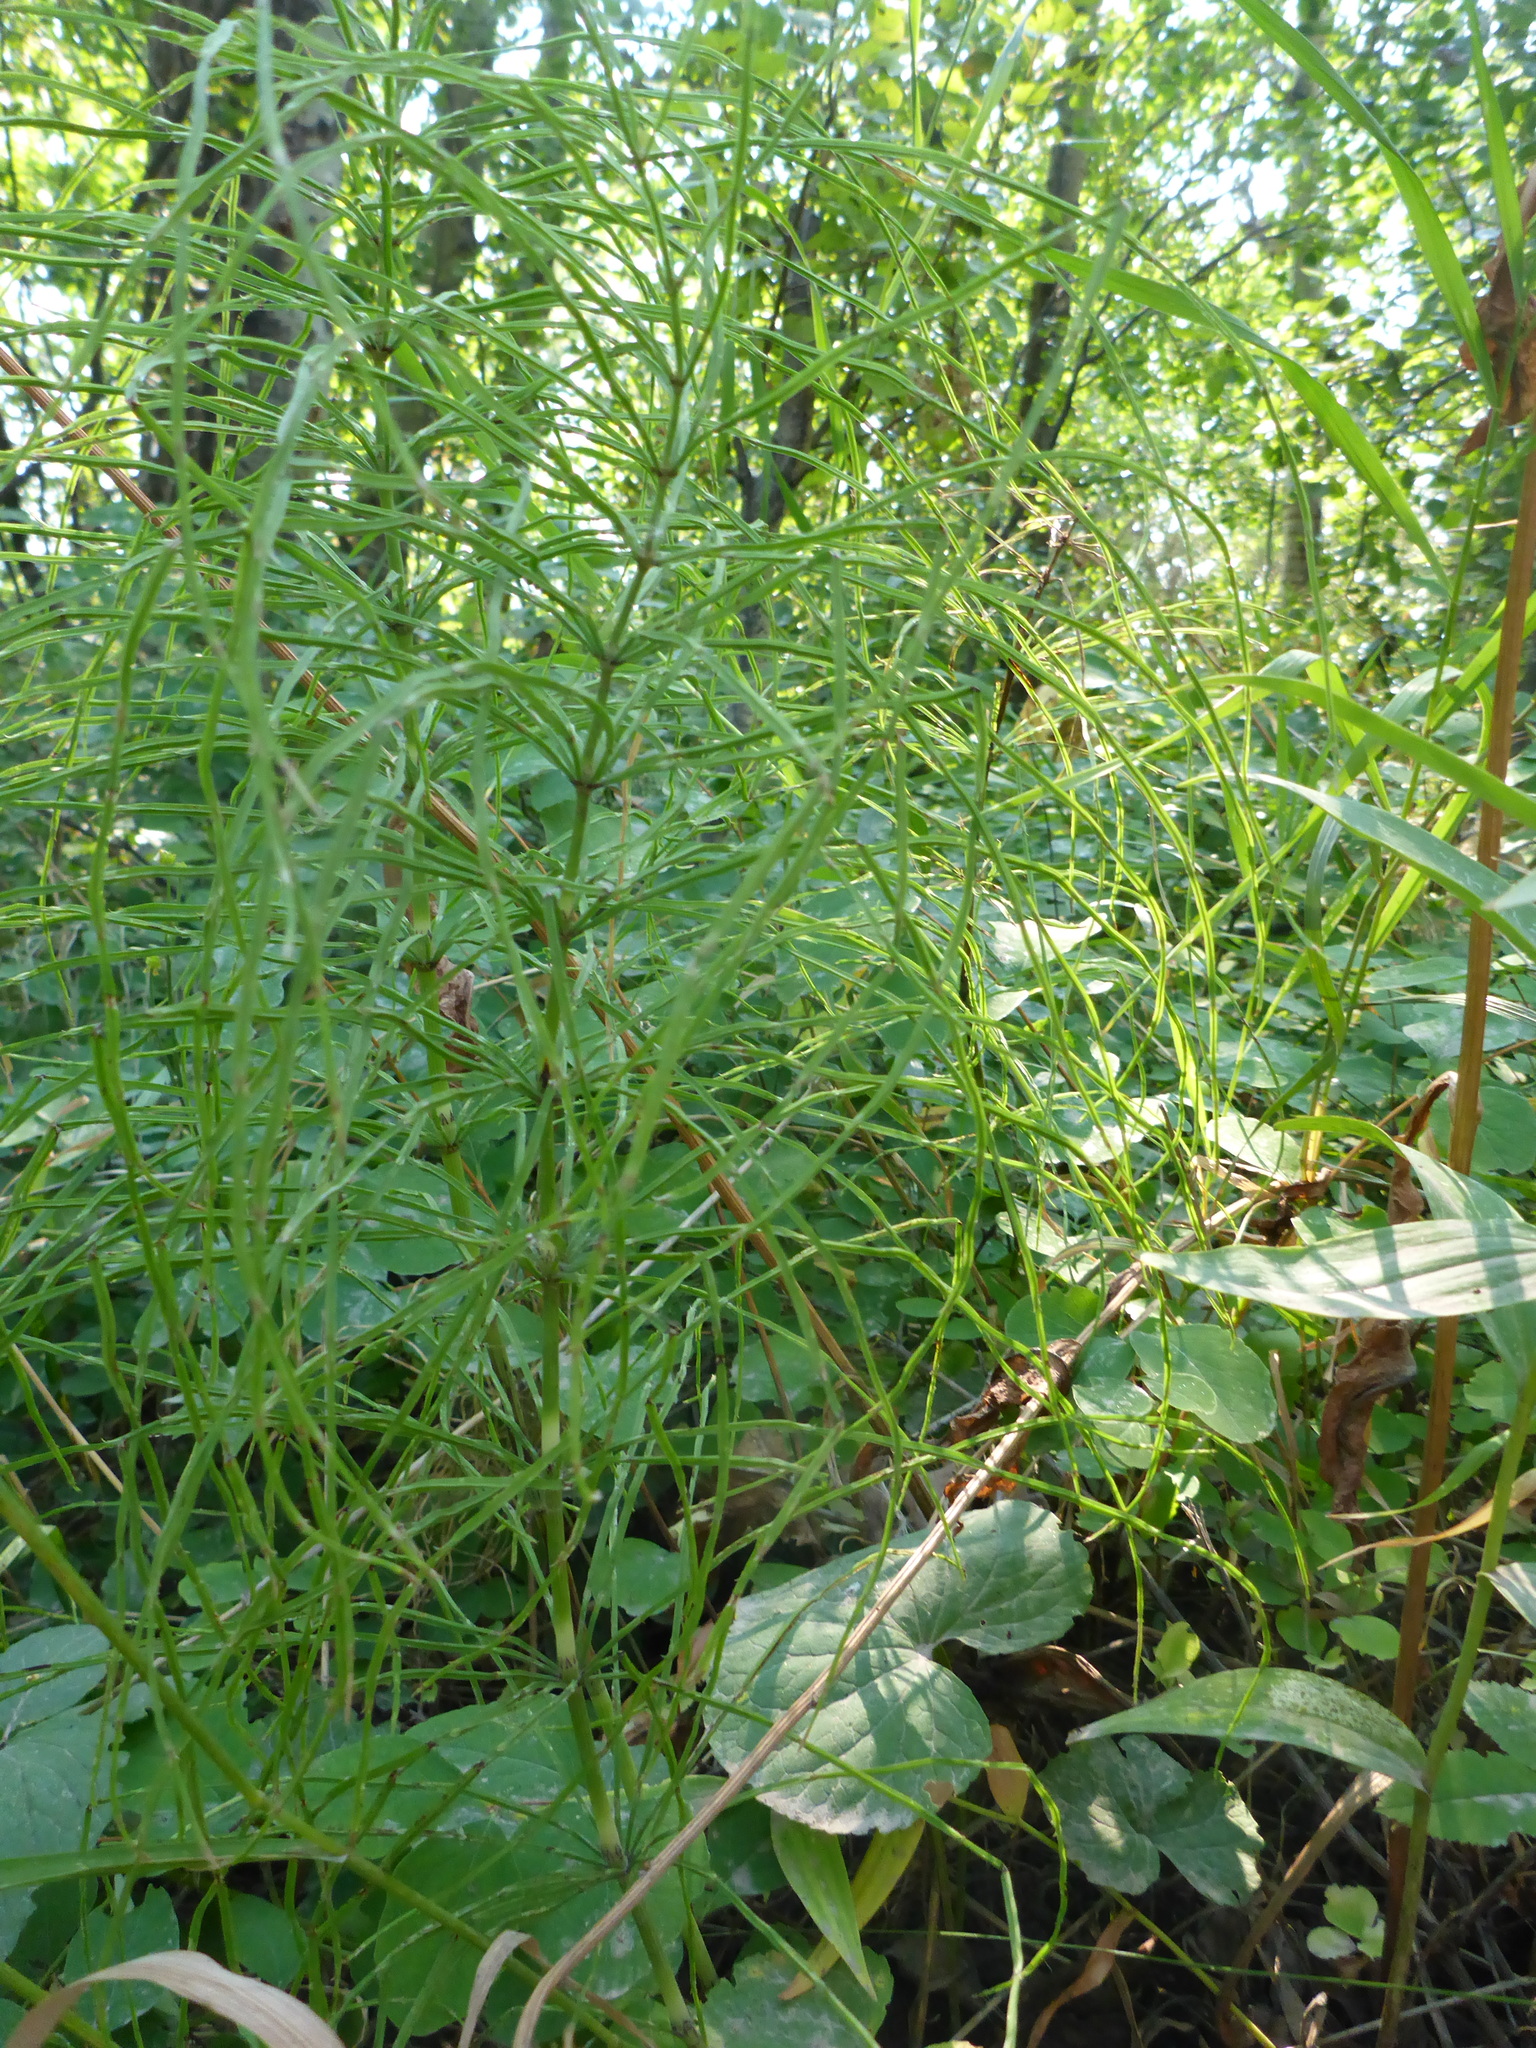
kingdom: Plantae
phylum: Tracheophyta
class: Polypodiopsida
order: Equisetales
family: Equisetaceae
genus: Equisetum
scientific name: Equisetum arvense
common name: Field horsetail
